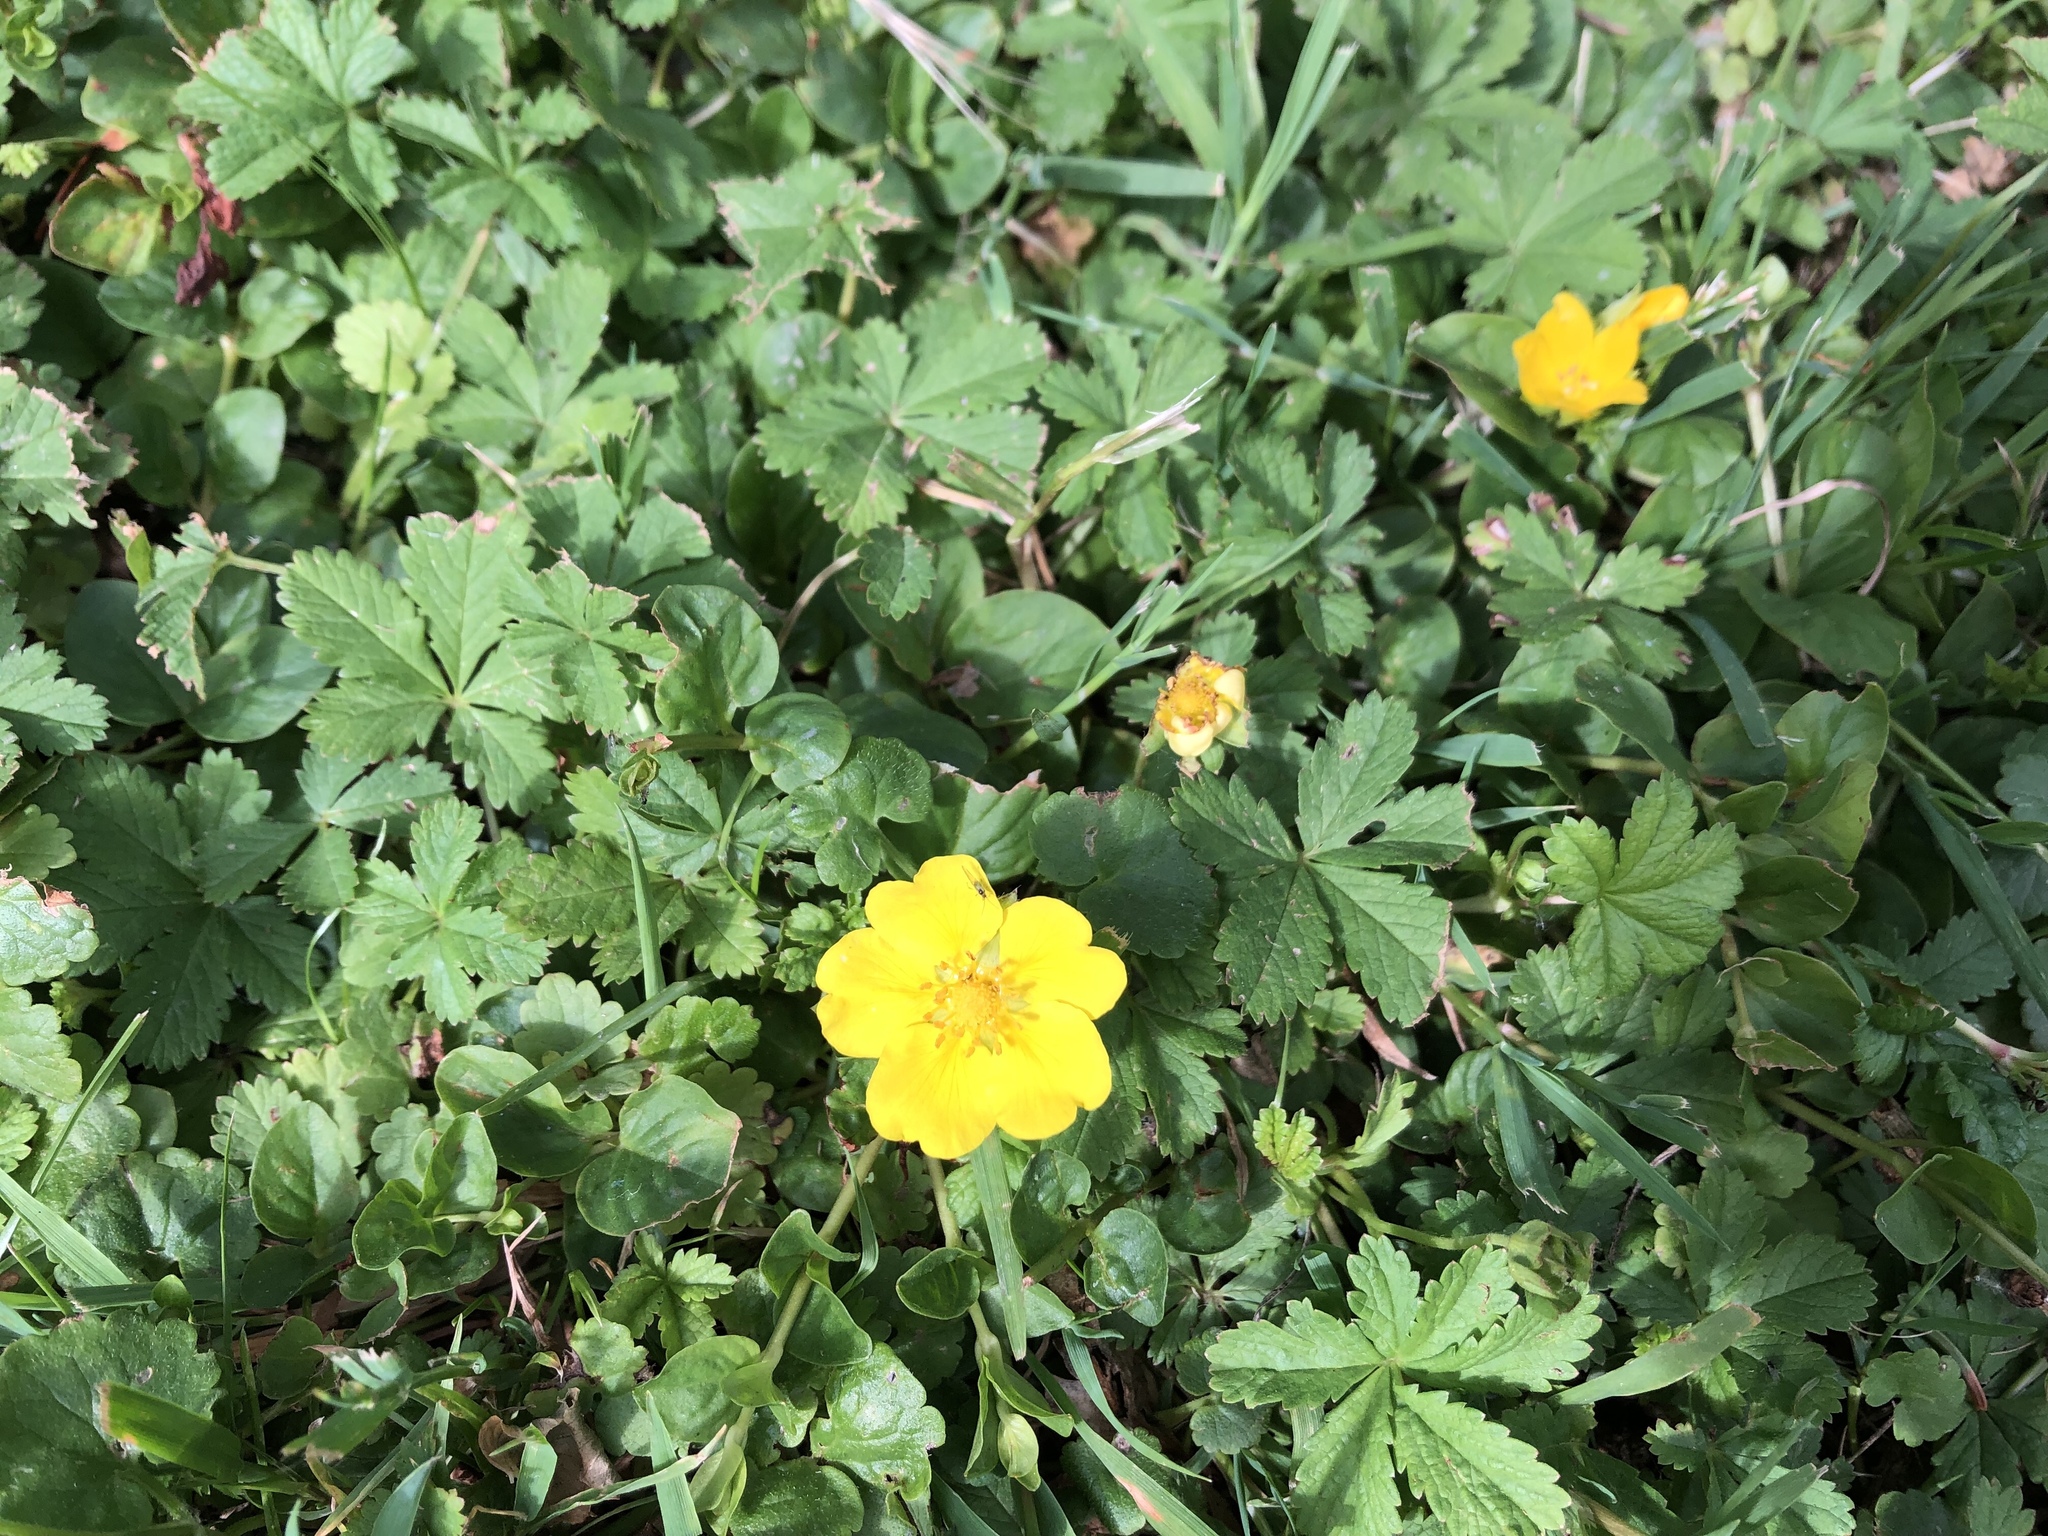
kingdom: Plantae
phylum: Tracheophyta
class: Magnoliopsida
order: Rosales
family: Rosaceae
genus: Potentilla
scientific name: Potentilla reptans
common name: Creeping cinquefoil
